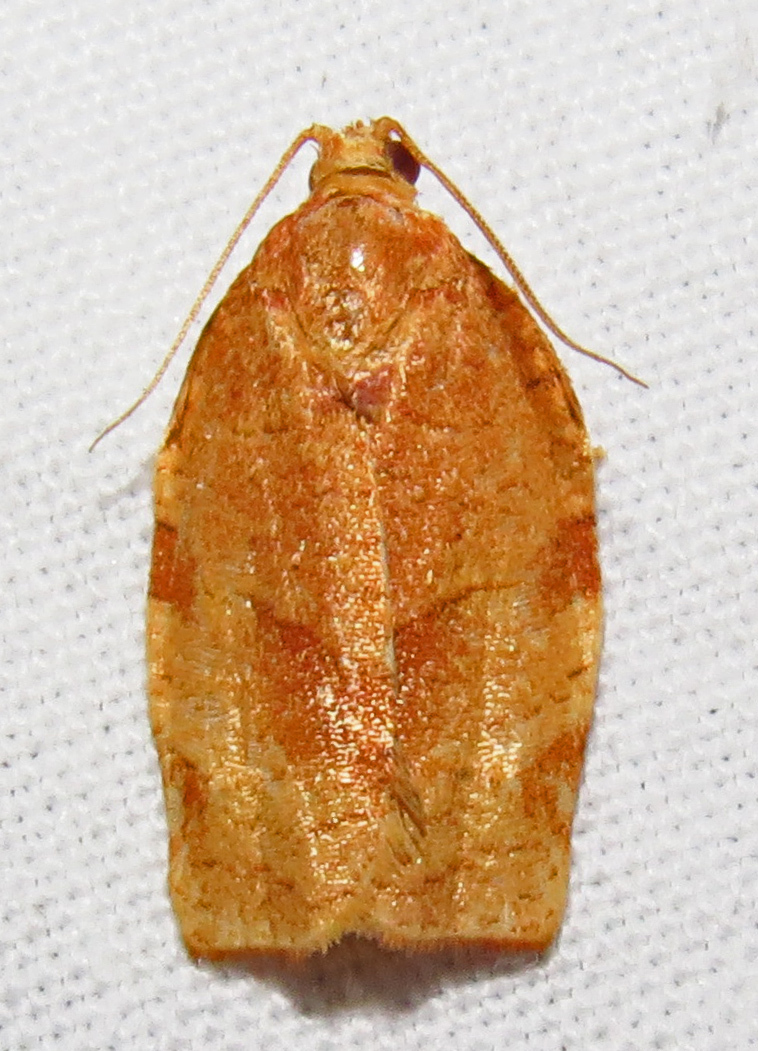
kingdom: Animalia
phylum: Arthropoda
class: Insecta
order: Lepidoptera
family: Tortricidae
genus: Choristoneura
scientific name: Choristoneura rosaceana
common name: Oblique-banded leafroller moth
